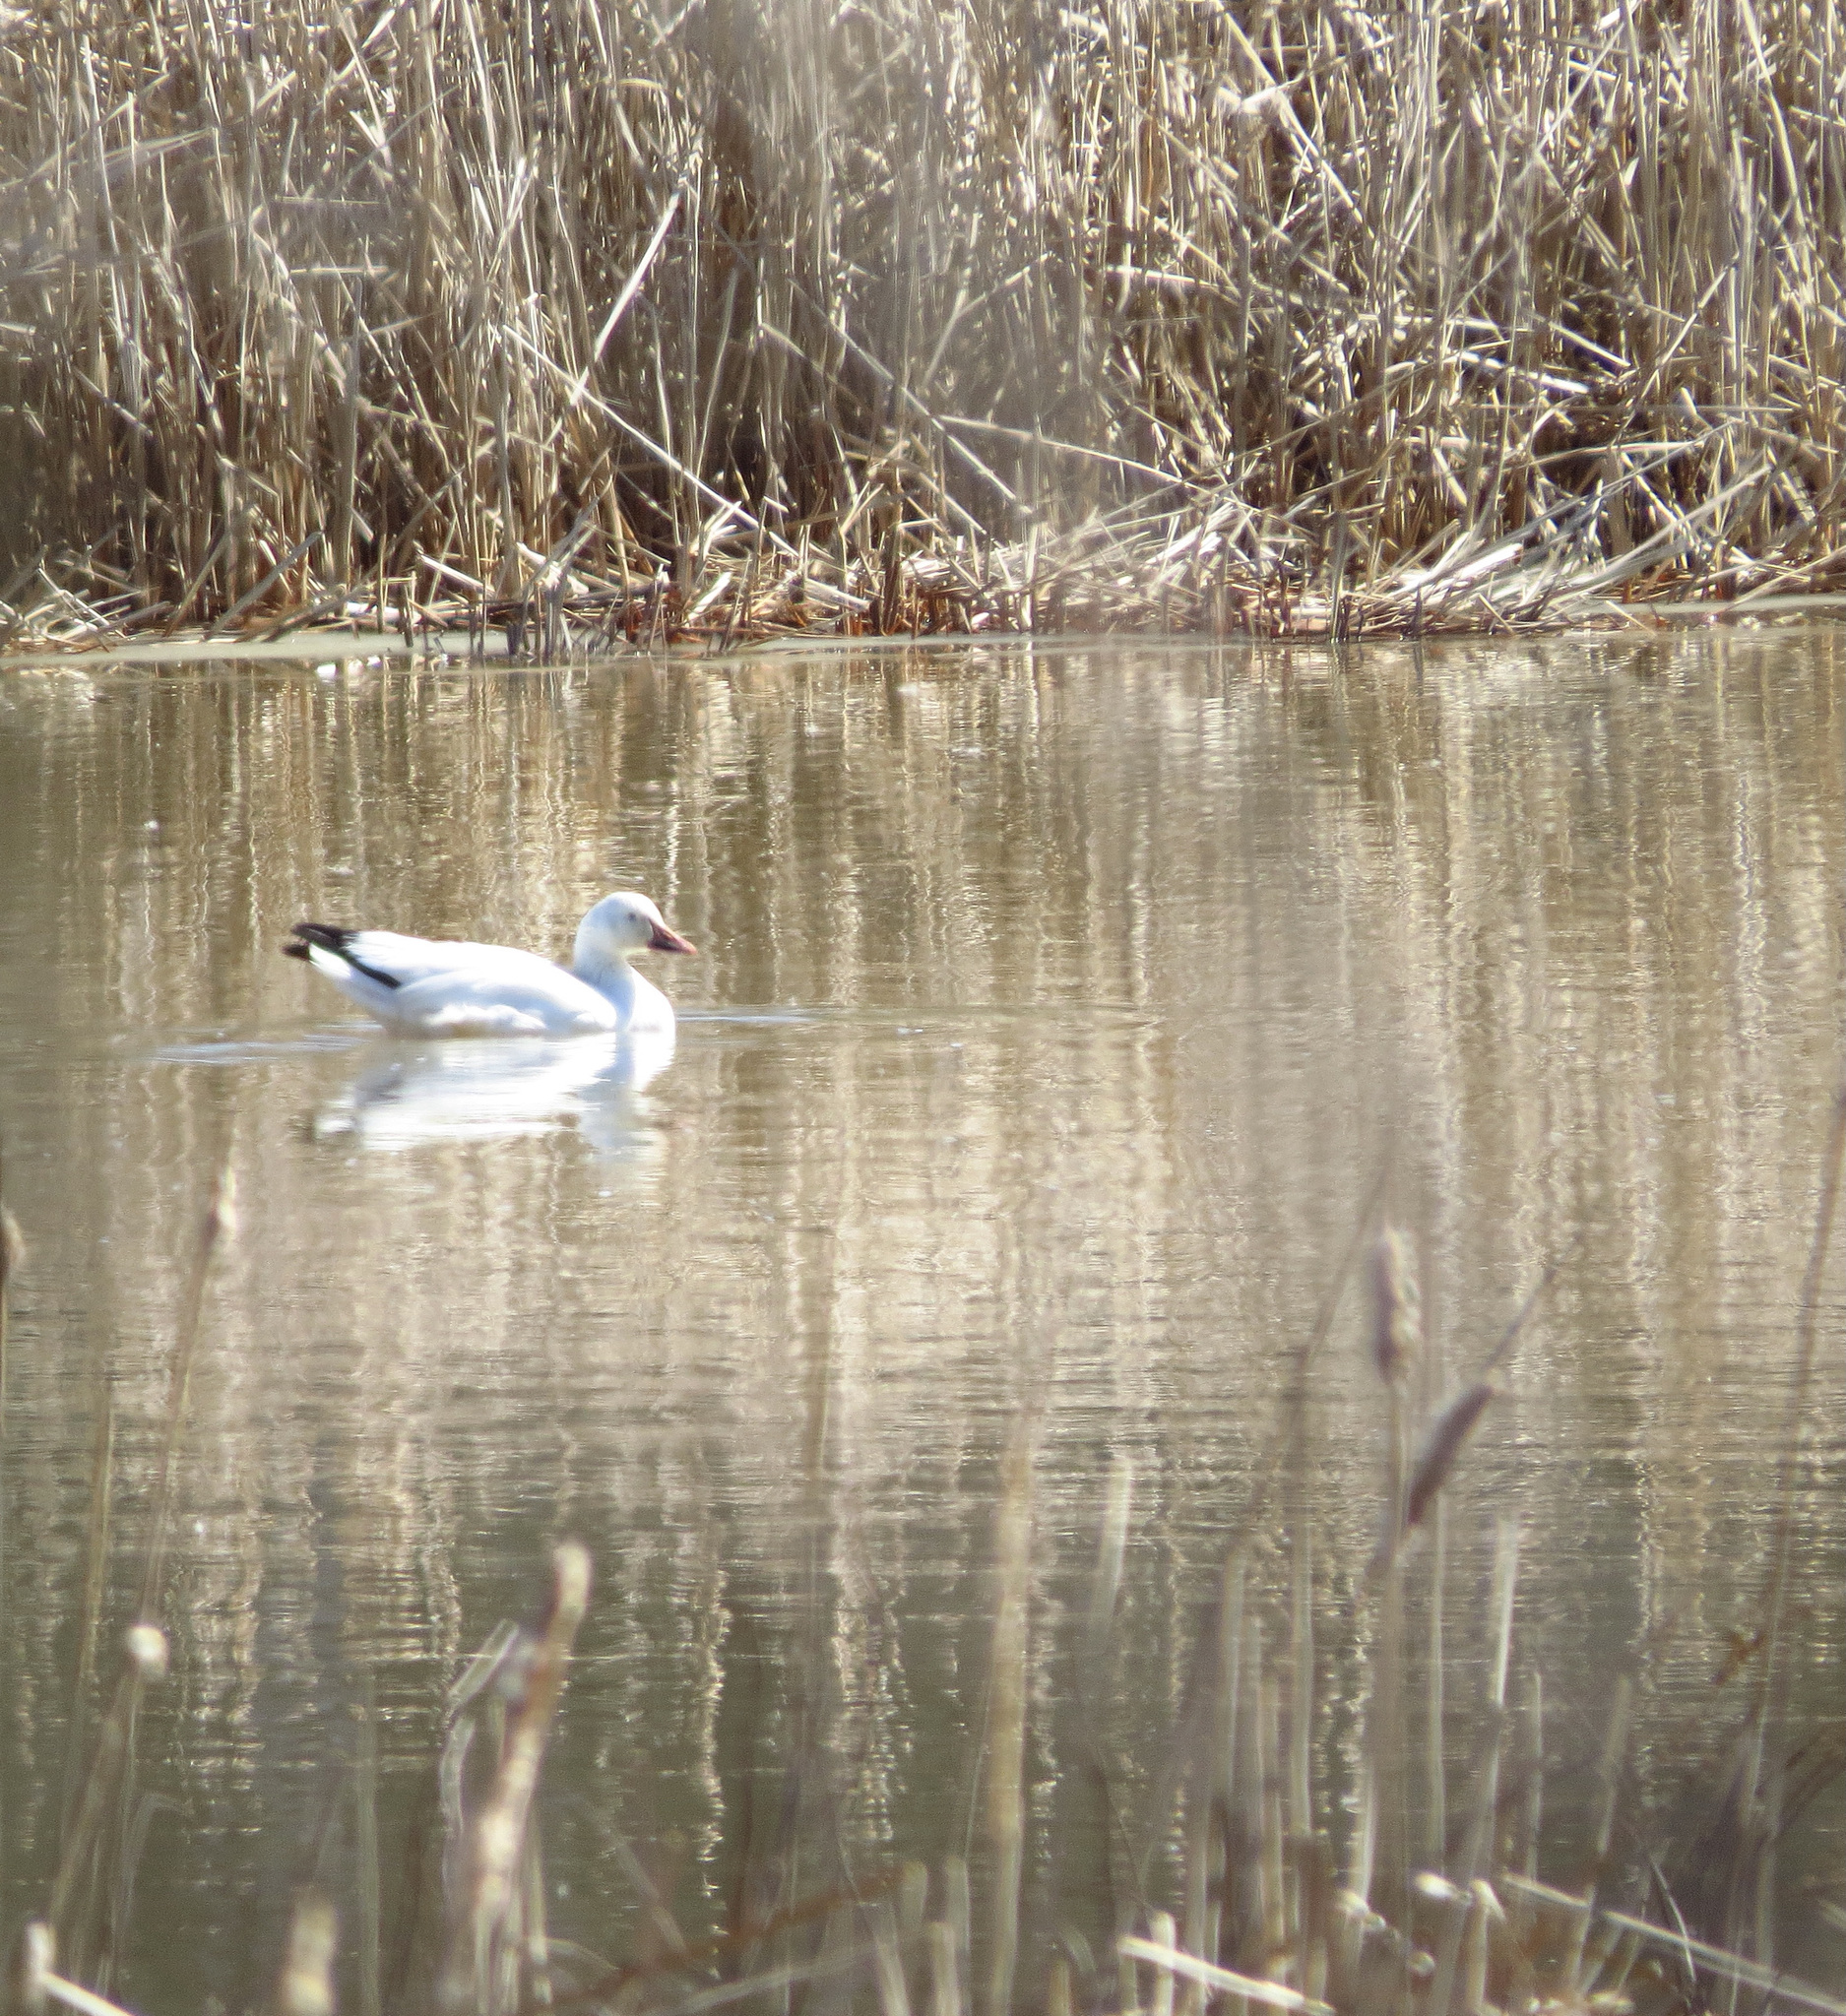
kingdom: Animalia
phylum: Chordata
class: Aves
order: Anseriformes
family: Anatidae
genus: Anser
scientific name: Anser caerulescens
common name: Snow goose
